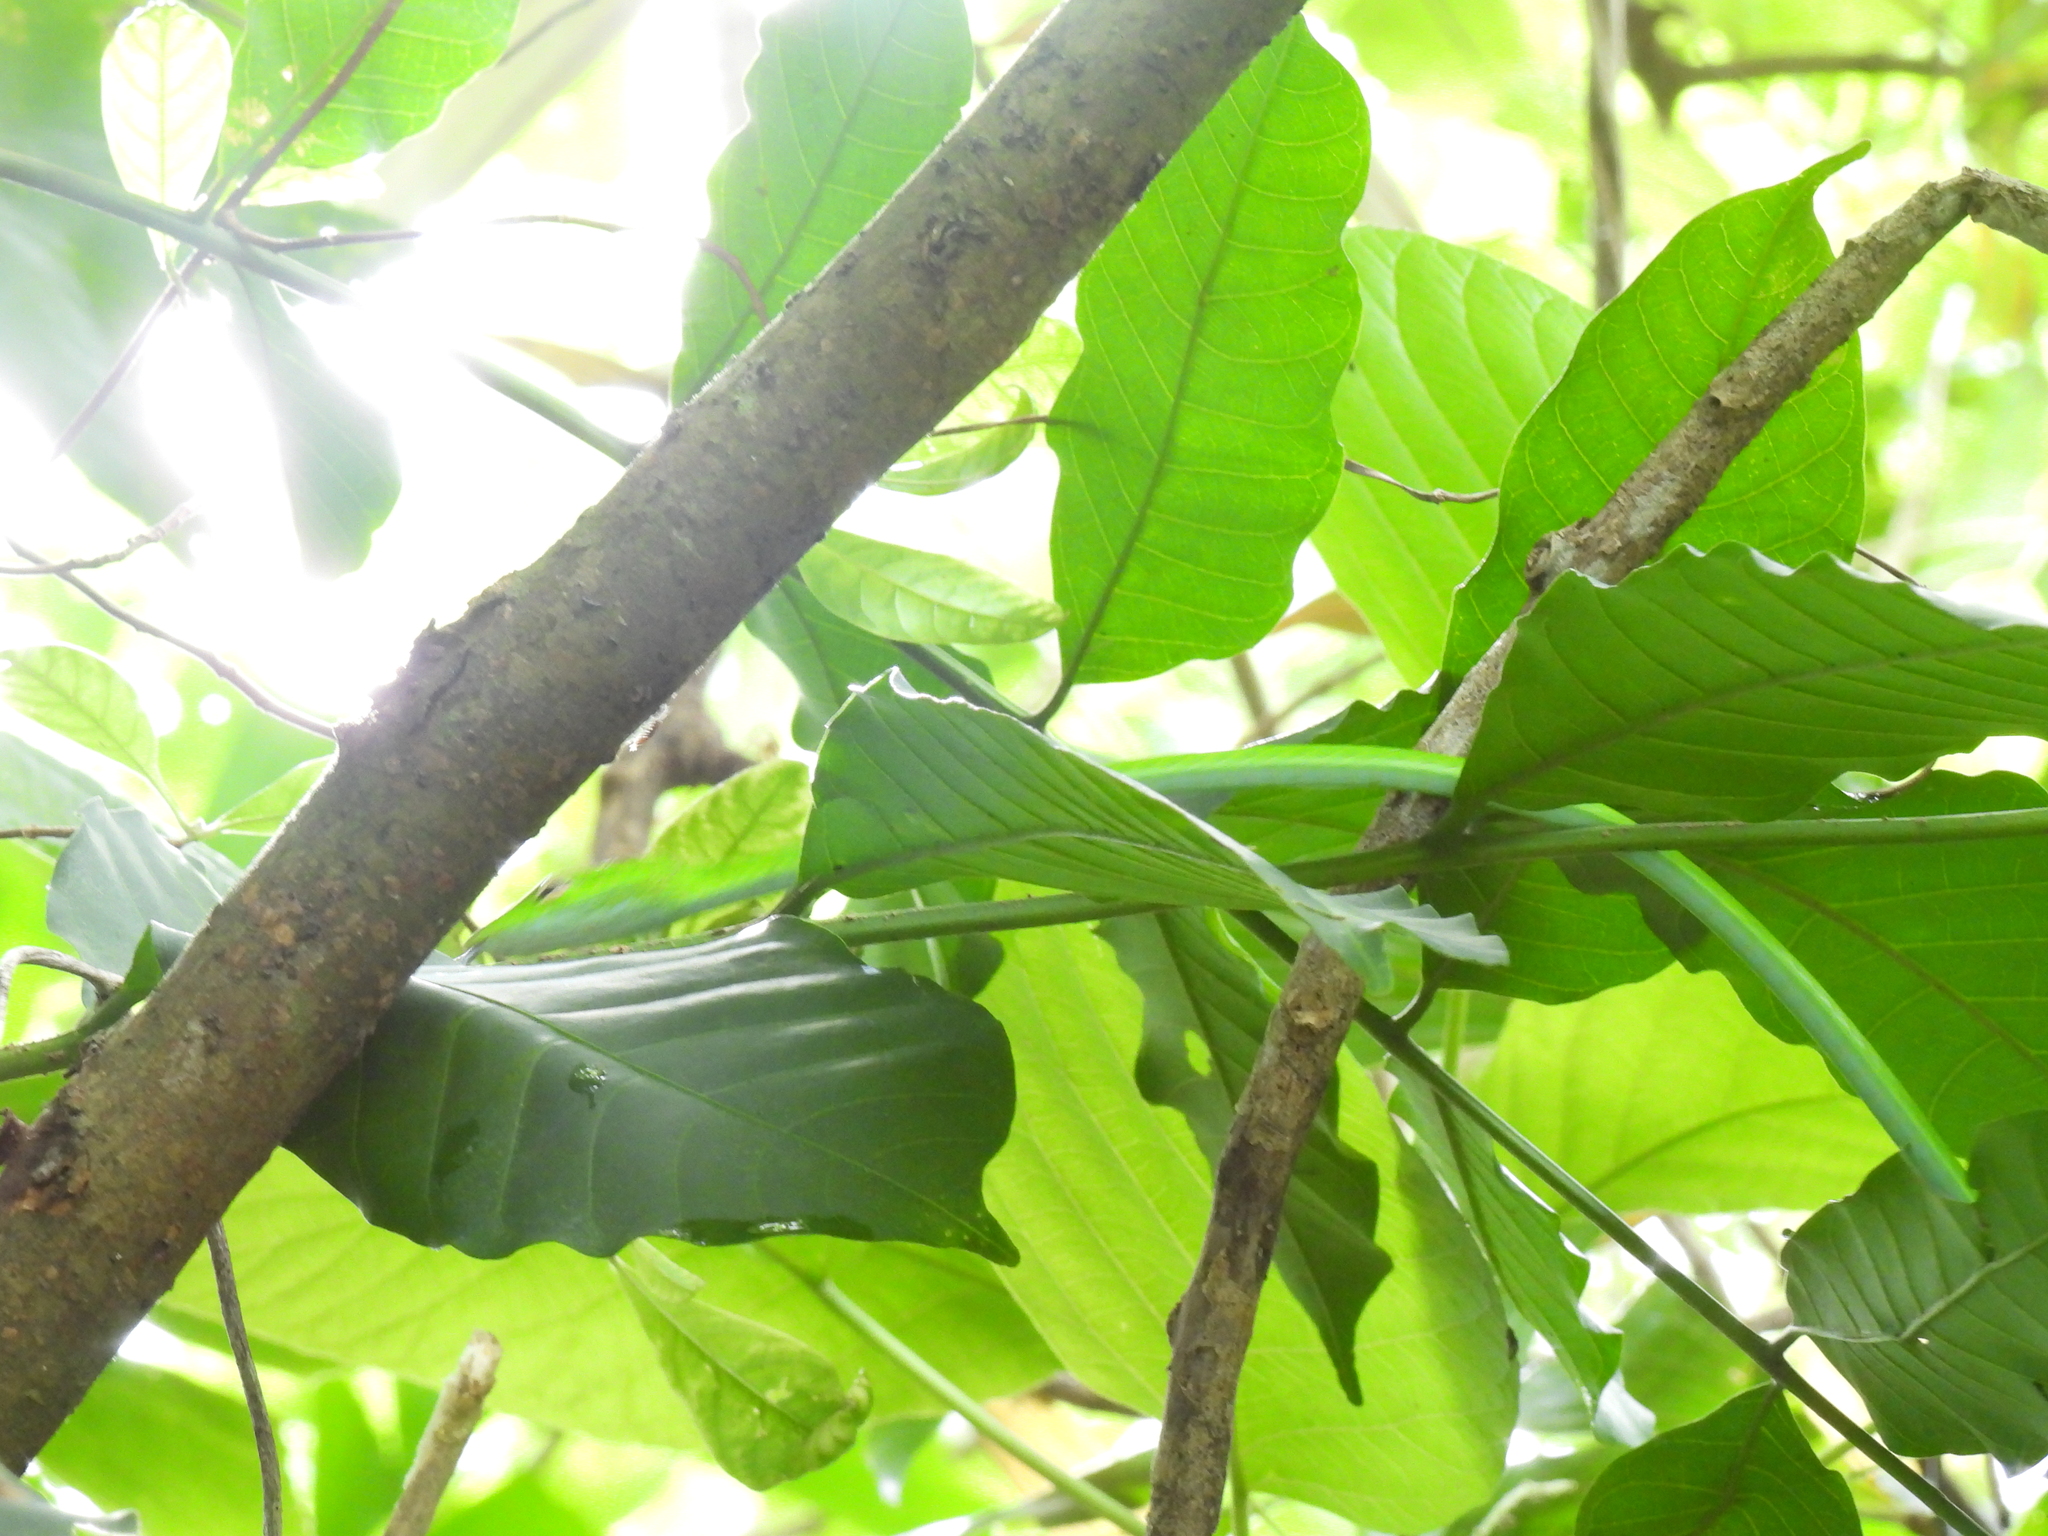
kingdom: Animalia
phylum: Chordata
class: Squamata
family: Colubridae
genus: Ahaetulla
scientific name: Ahaetulla prasina
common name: Oriental whip snake
